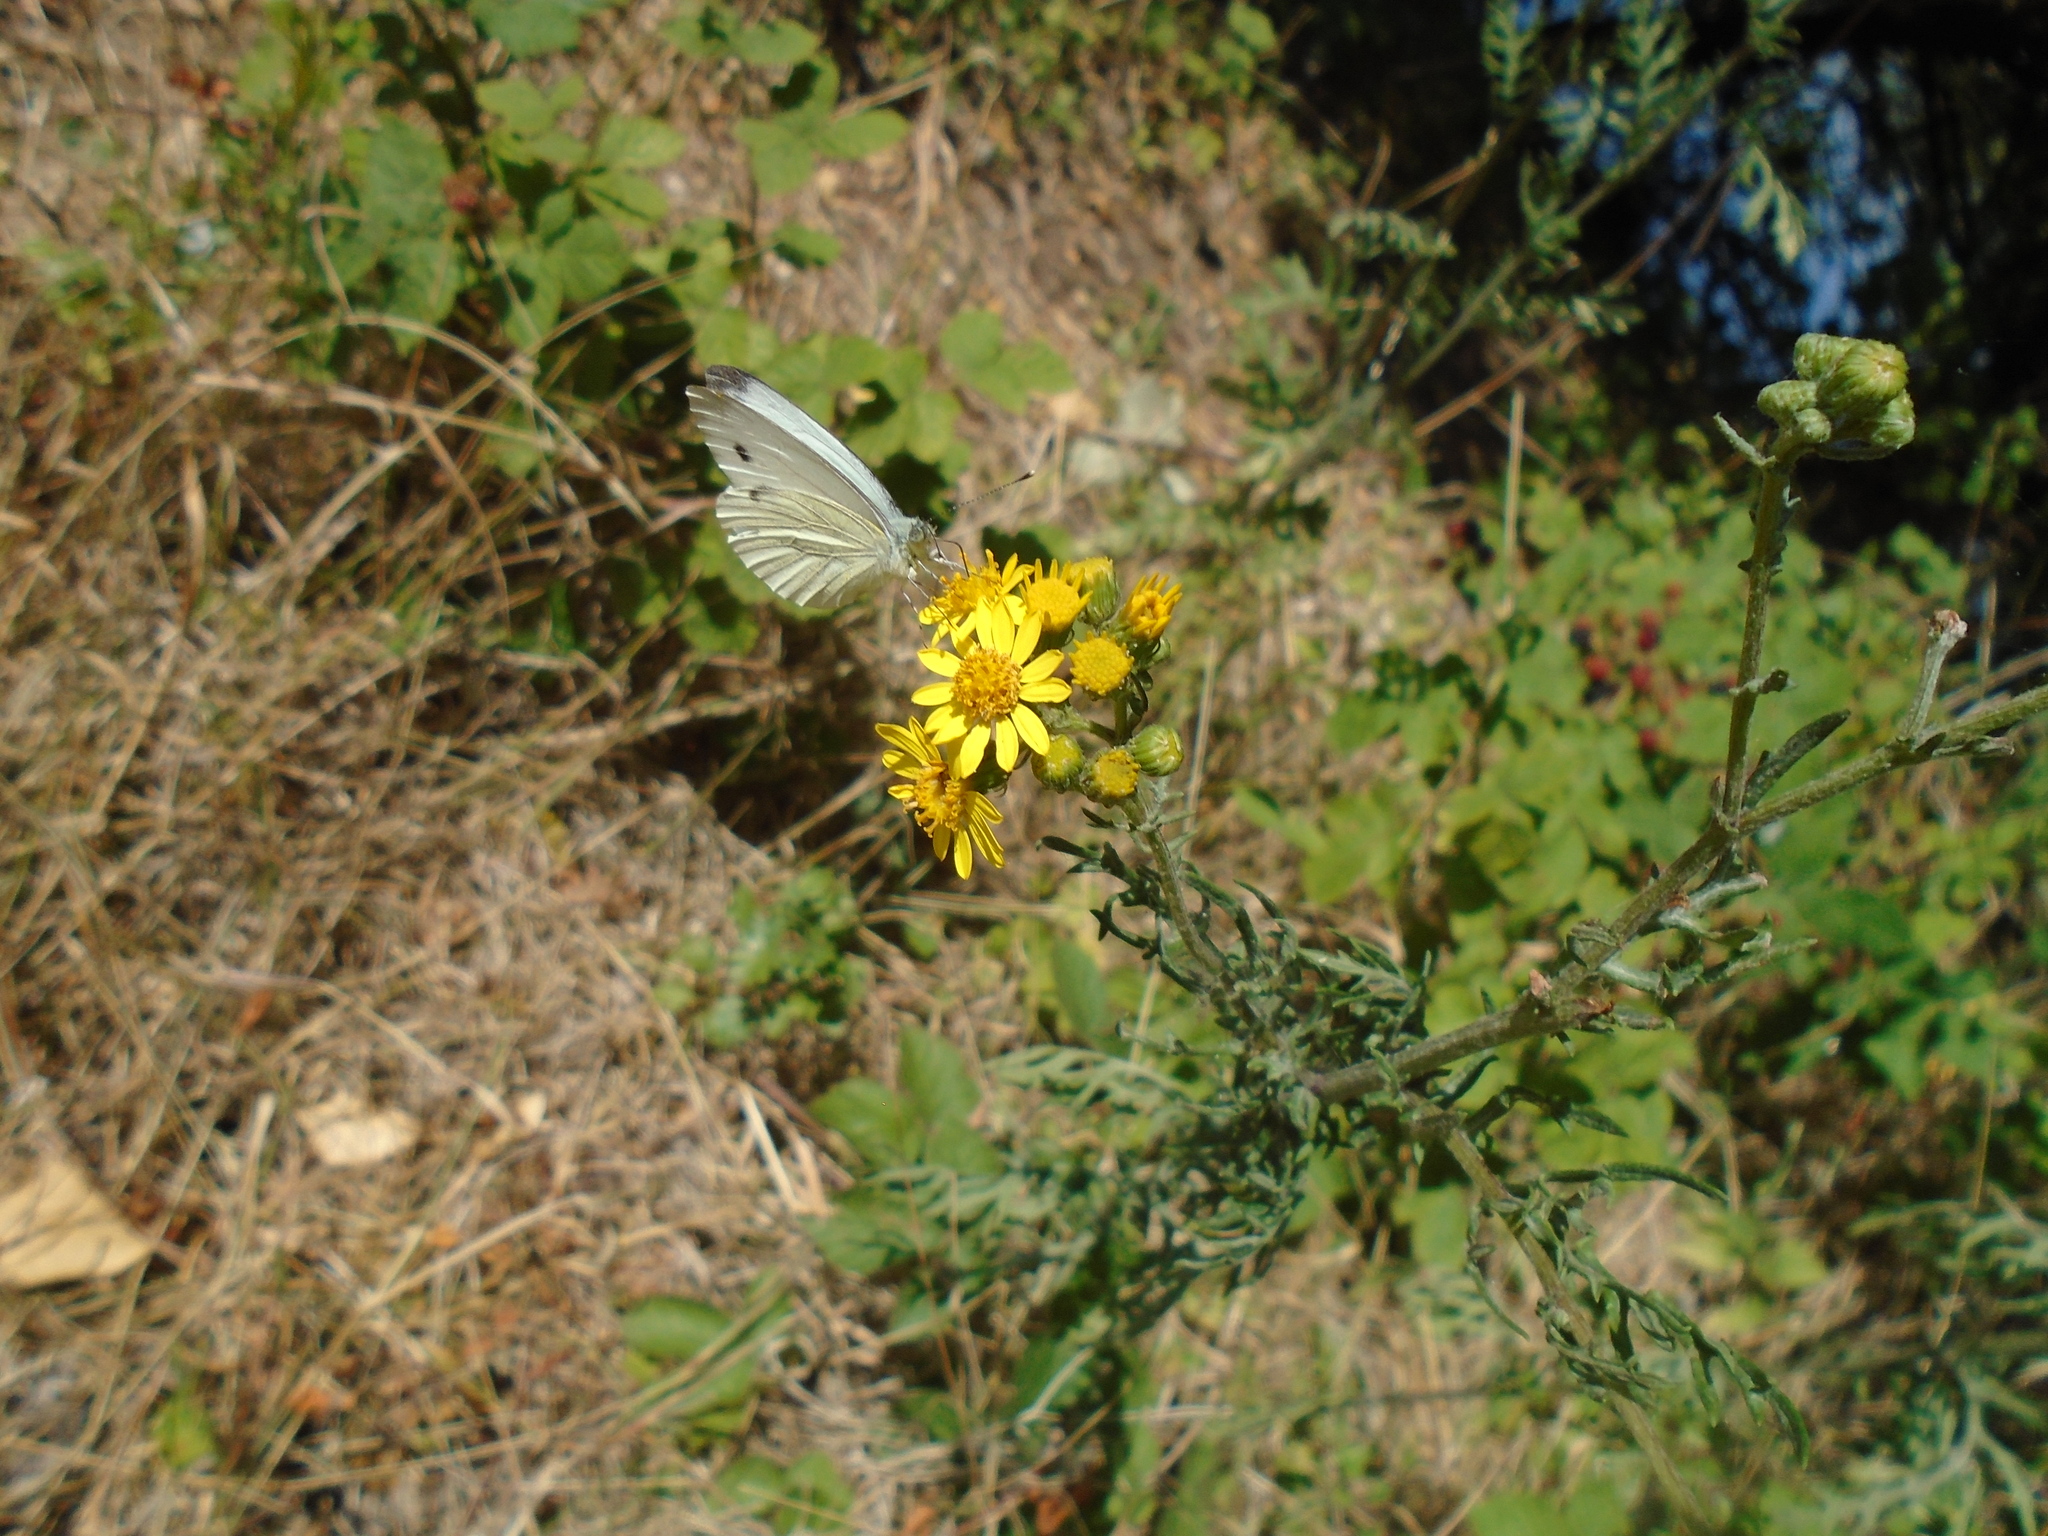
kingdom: Animalia
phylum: Arthropoda
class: Insecta
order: Lepidoptera
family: Pieridae
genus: Pieris
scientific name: Pieris napi
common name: Green-veined white
